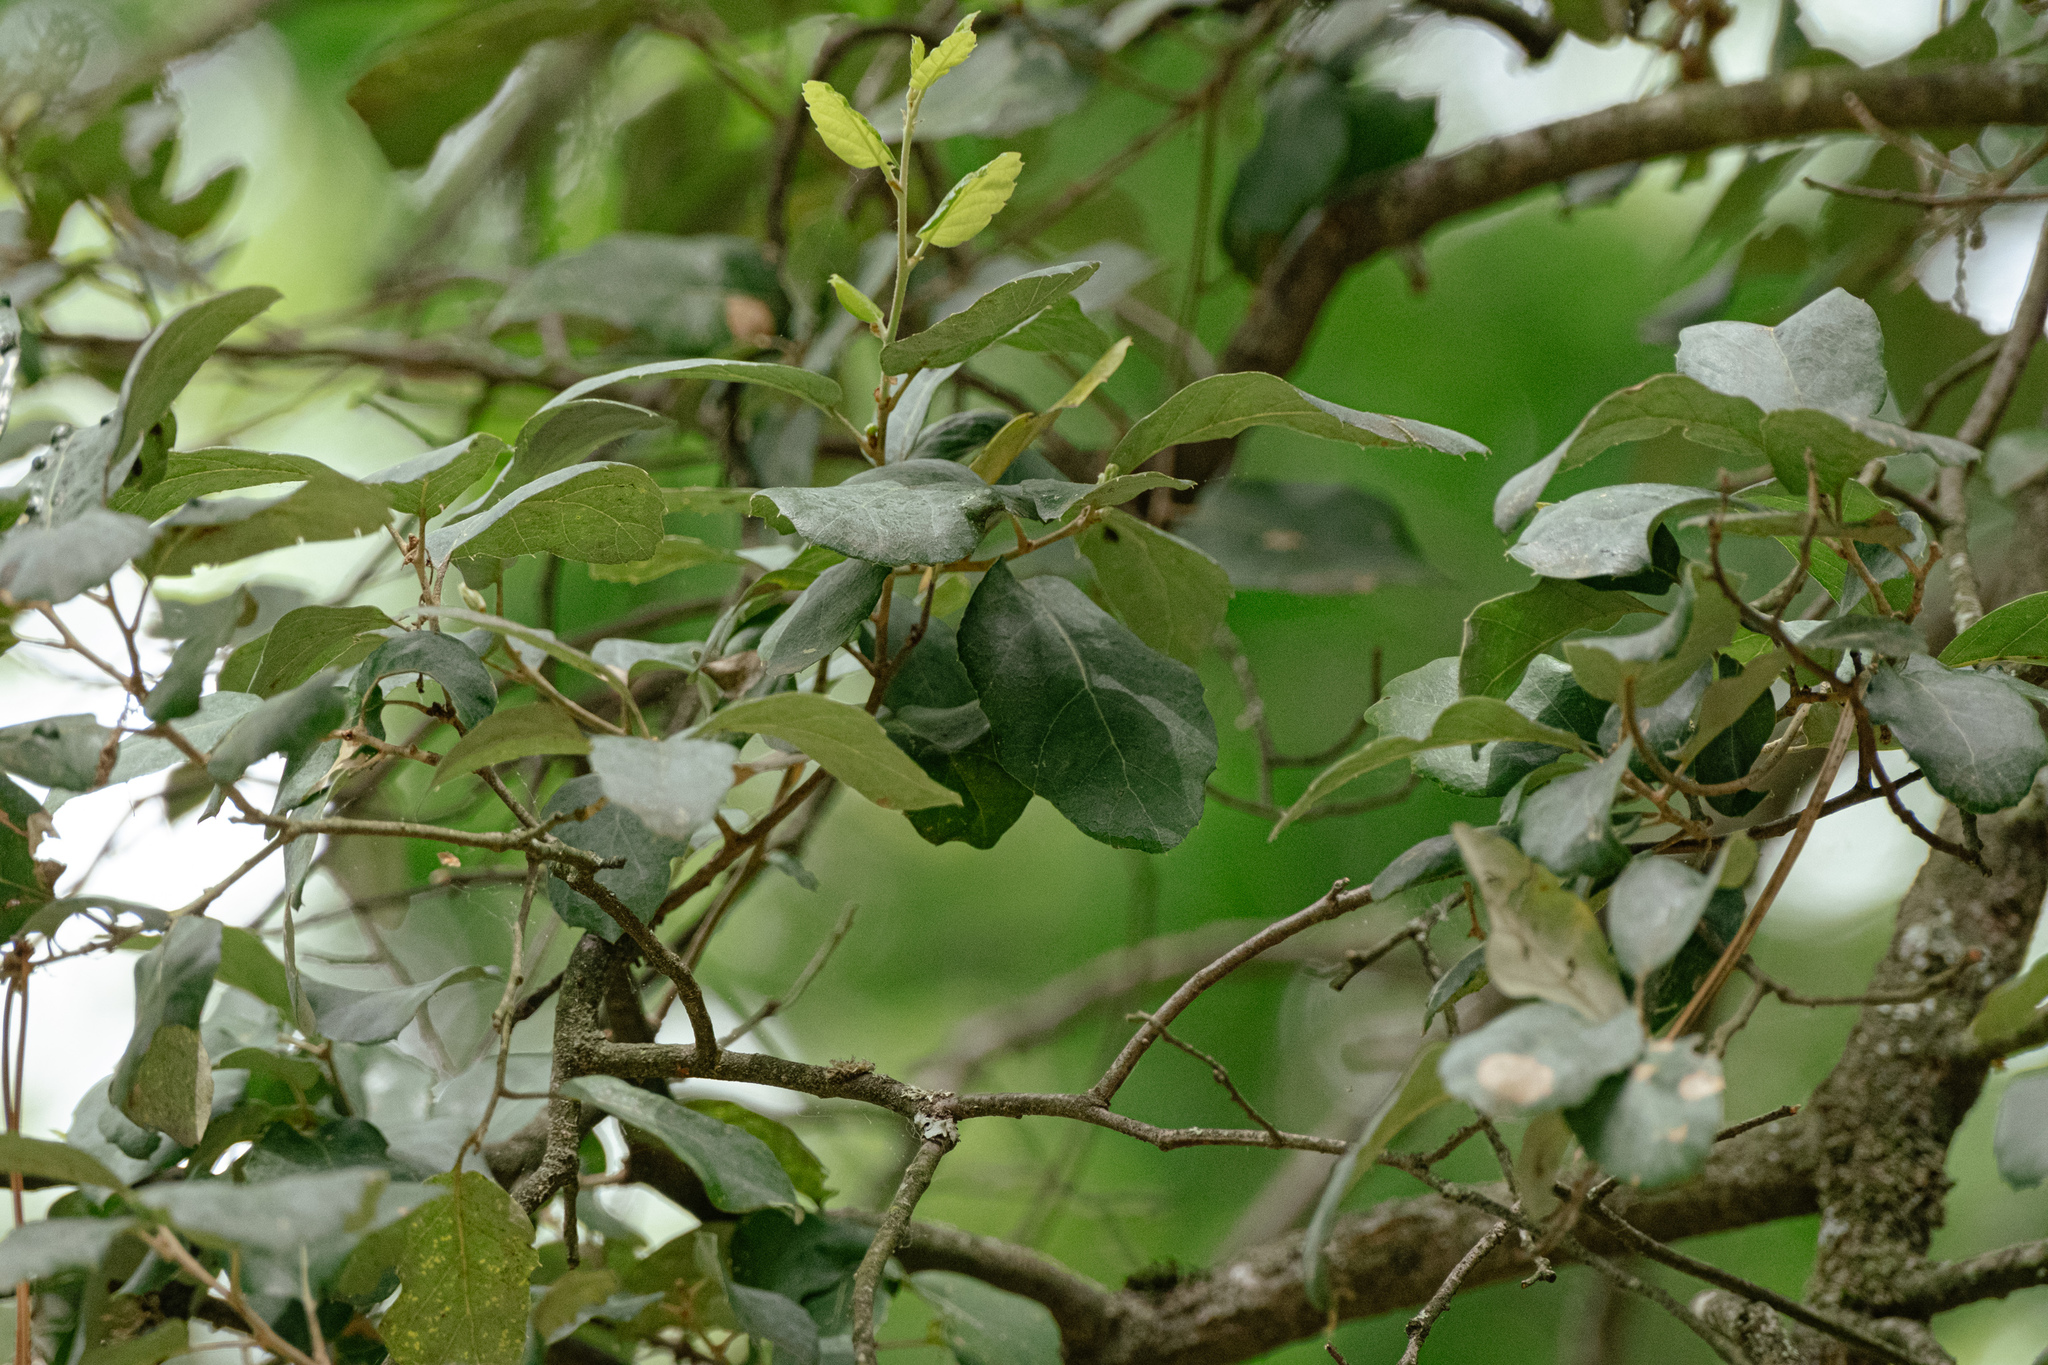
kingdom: Plantae
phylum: Tracheophyta
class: Magnoliopsida
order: Fagales
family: Fagaceae
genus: Quercus
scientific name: Quercus suber
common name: Cork oak
